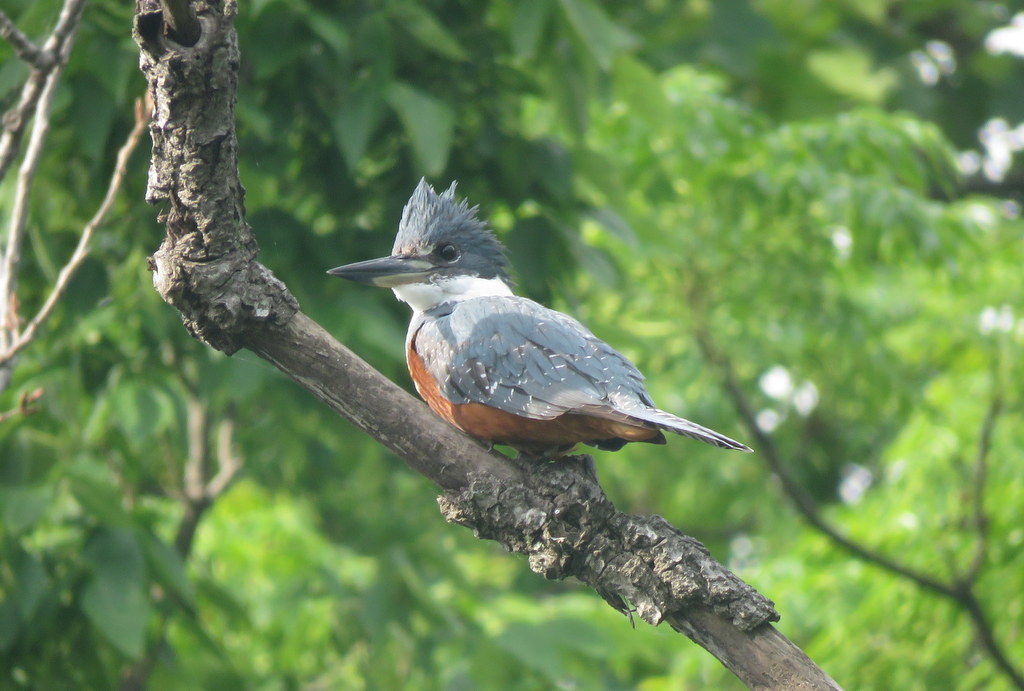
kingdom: Animalia
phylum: Chordata
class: Aves
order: Coraciiformes
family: Alcedinidae
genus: Megaceryle
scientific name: Megaceryle torquata
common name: Ringed kingfisher
